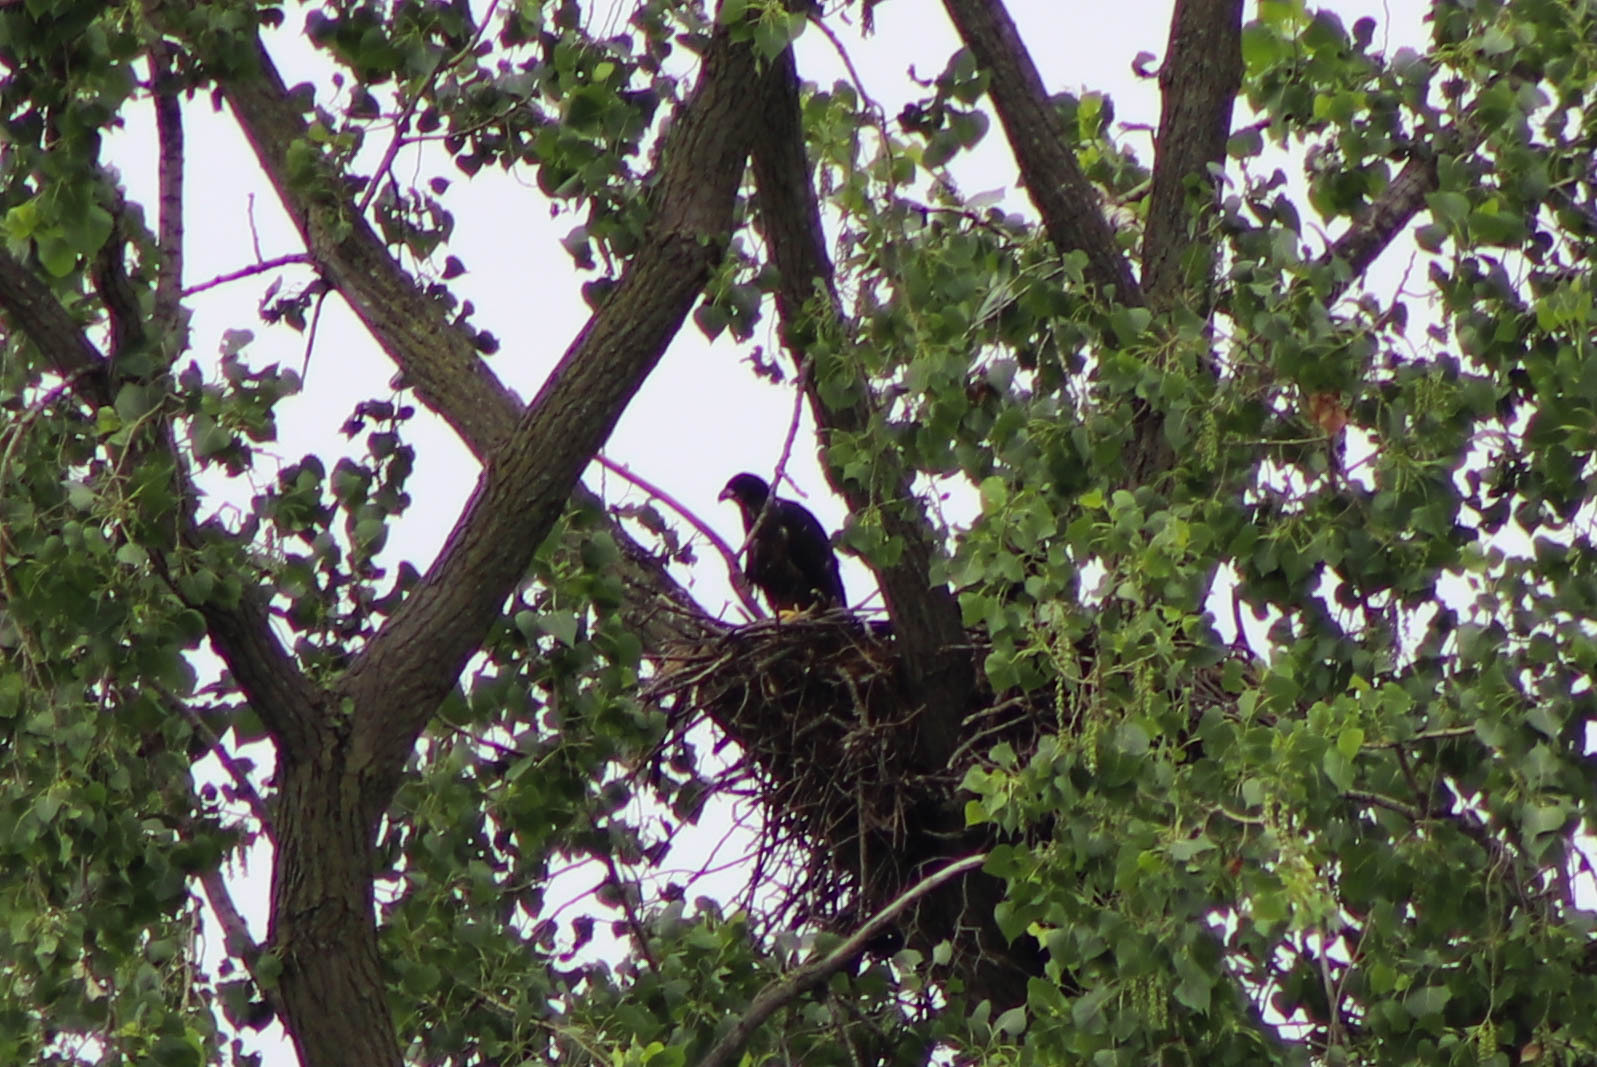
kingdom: Animalia
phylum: Chordata
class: Aves
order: Accipitriformes
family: Accipitridae
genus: Haliaeetus
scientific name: Haliaeetus leucocephalus
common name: Bald eagle
